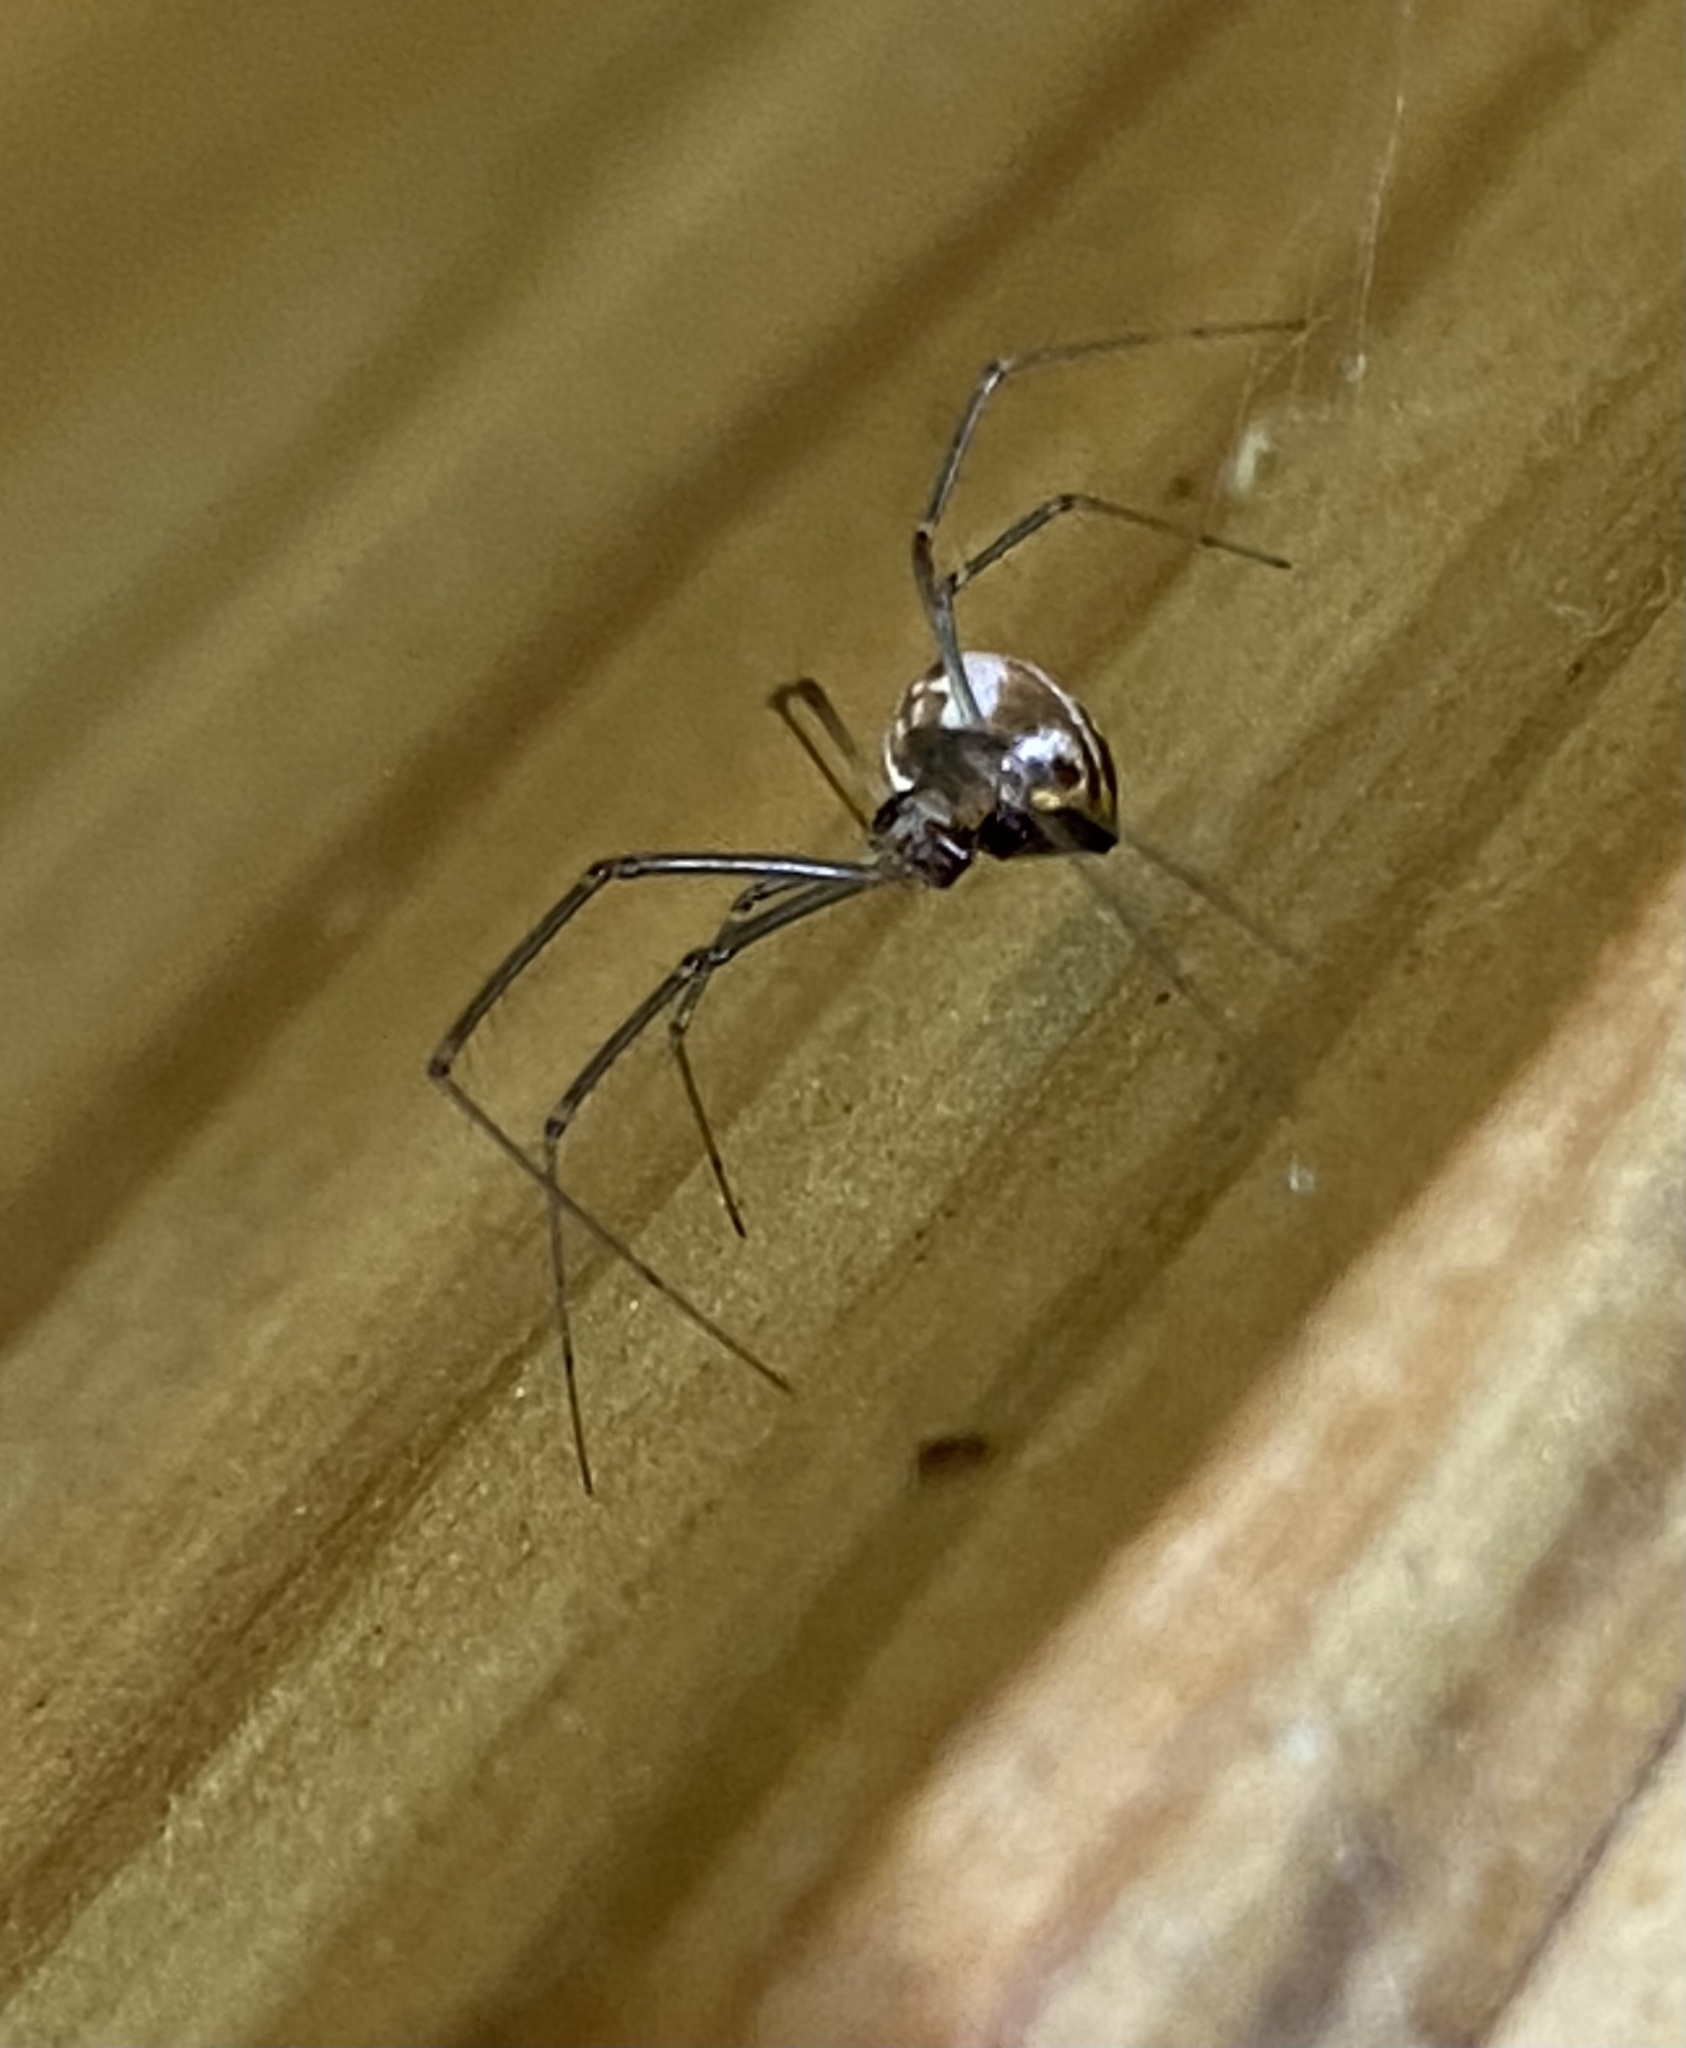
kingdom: Animalia
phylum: Arthropoda
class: Arachnida
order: Araneae
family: Linyphiidae
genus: Neriene
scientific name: Neriene radiata
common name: Filmy dome spider
